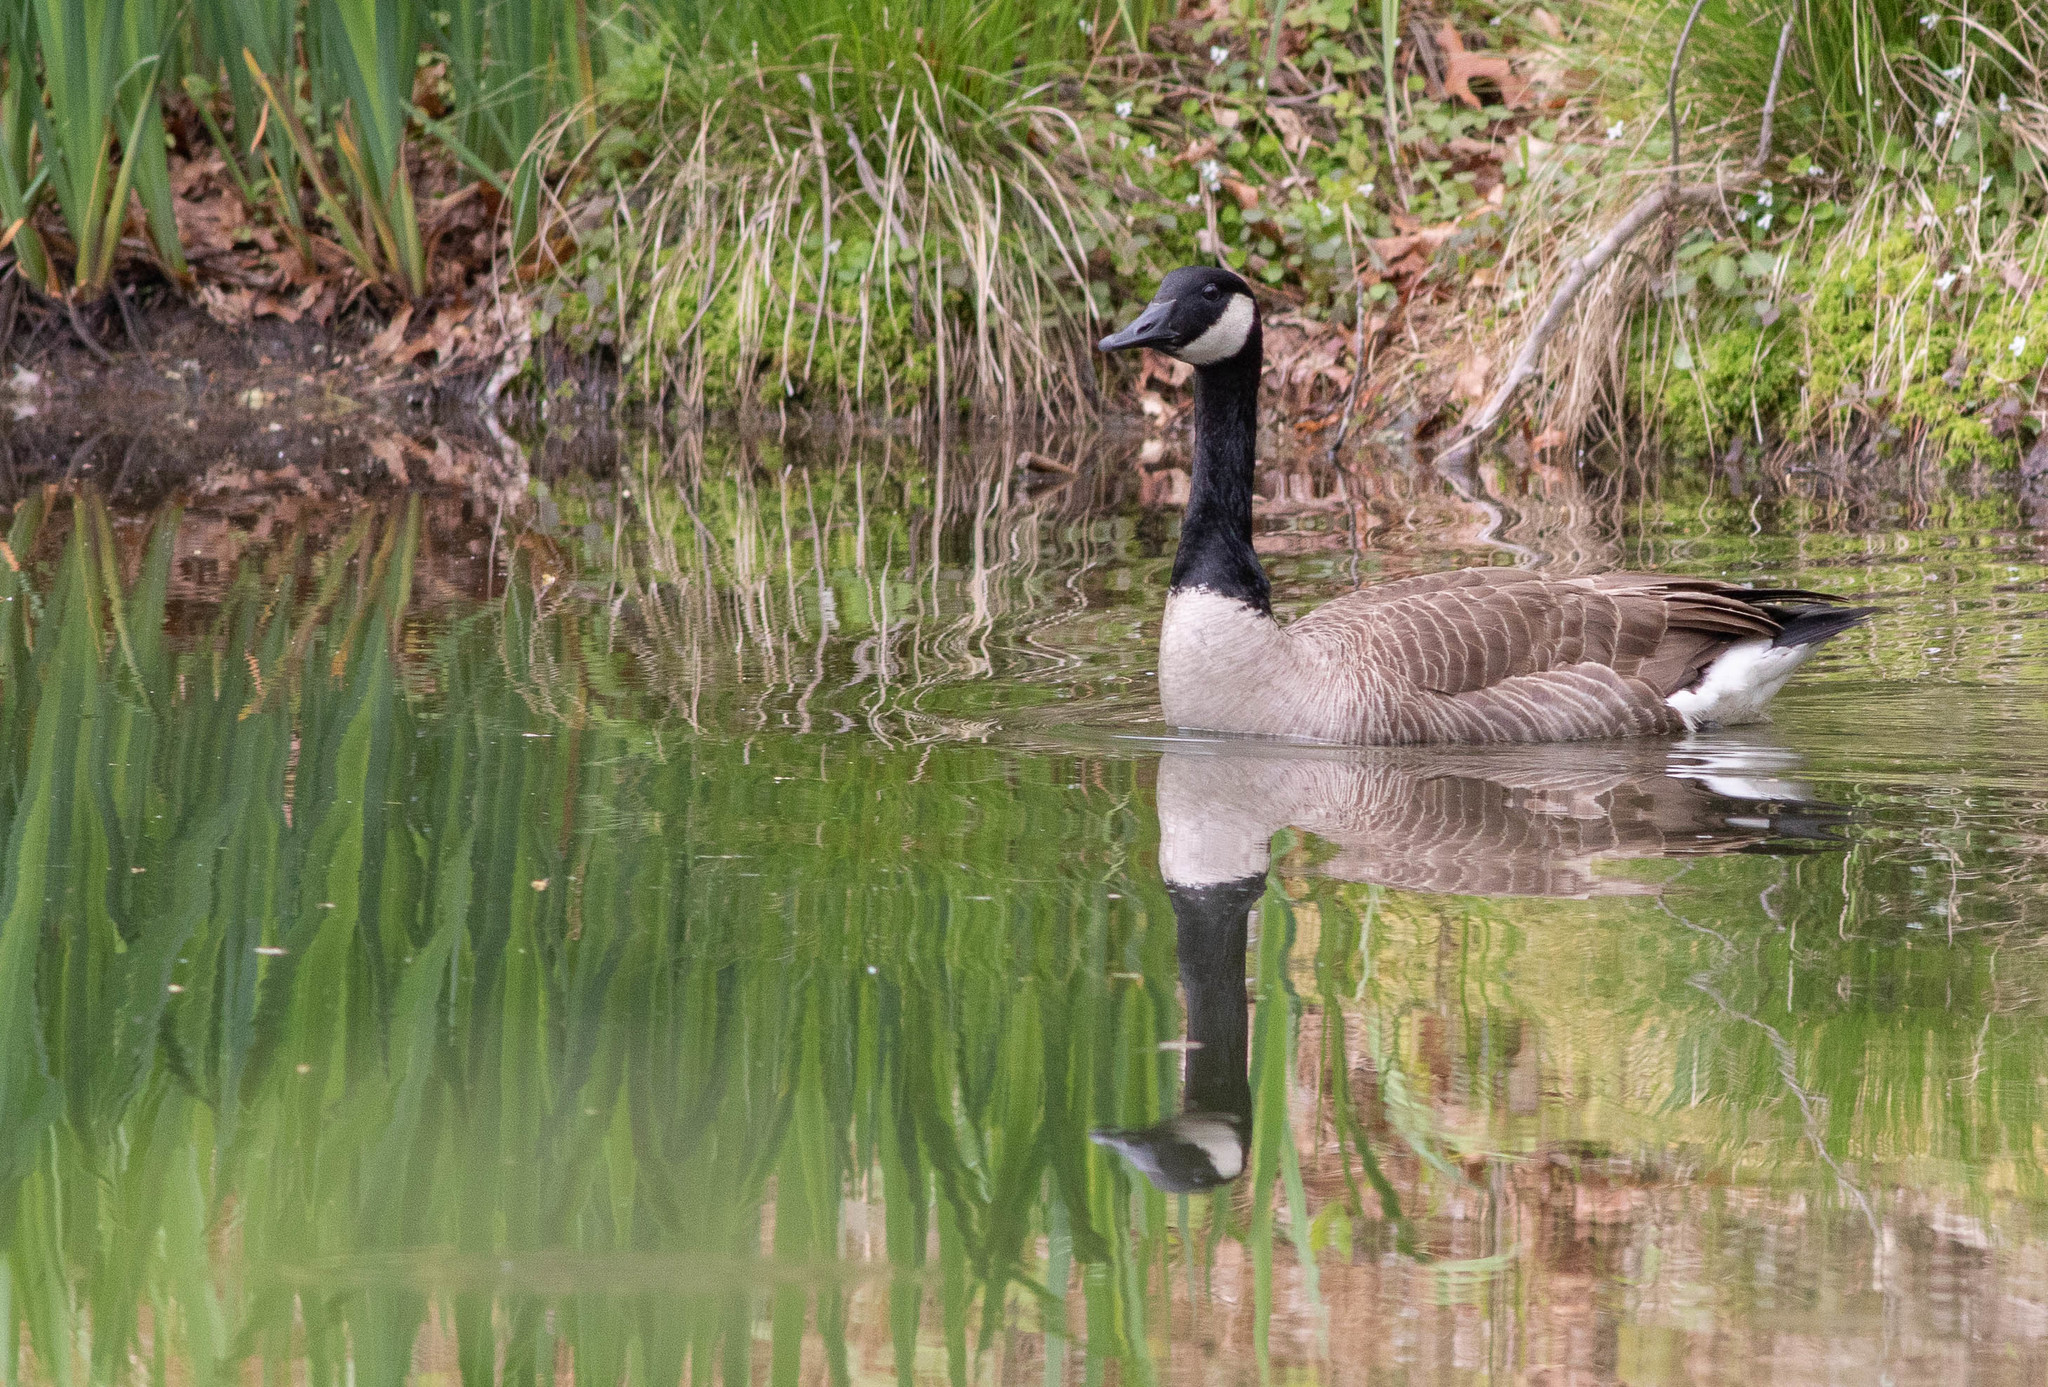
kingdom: Animalia
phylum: Chordata
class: Aves
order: Anseriformes
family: Anatidae
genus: Branta
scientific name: Branta canadensis
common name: Canada goose
